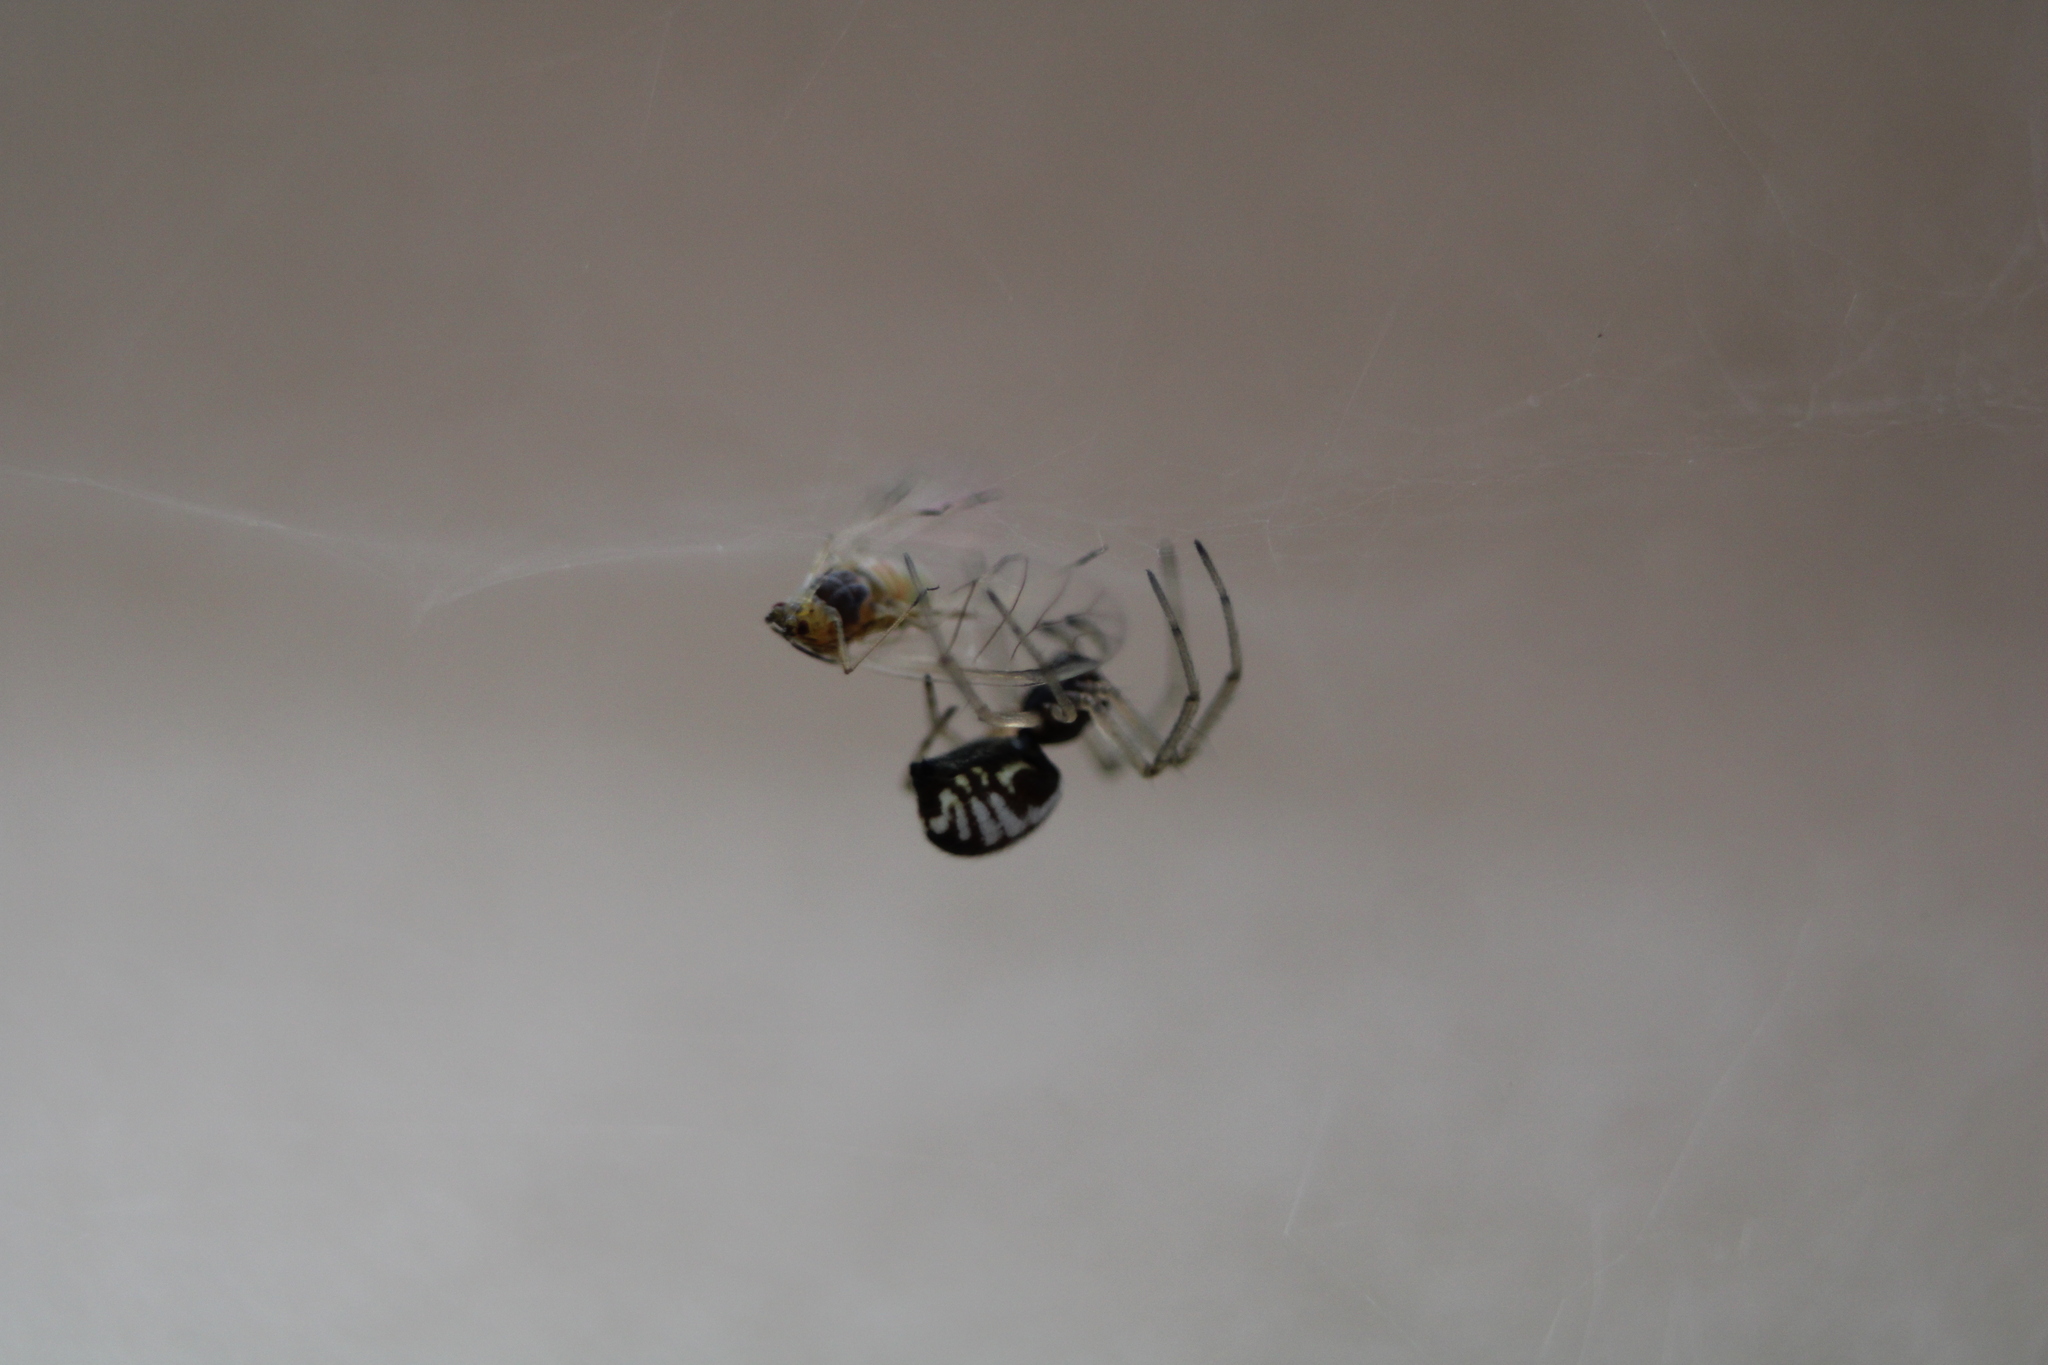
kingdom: Animalia
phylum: Arthropoda
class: Arachnida
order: Araneae
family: Linyphiidae
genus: Frontinella
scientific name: Frontinella pyramitela
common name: Bowl-and-doily spider
